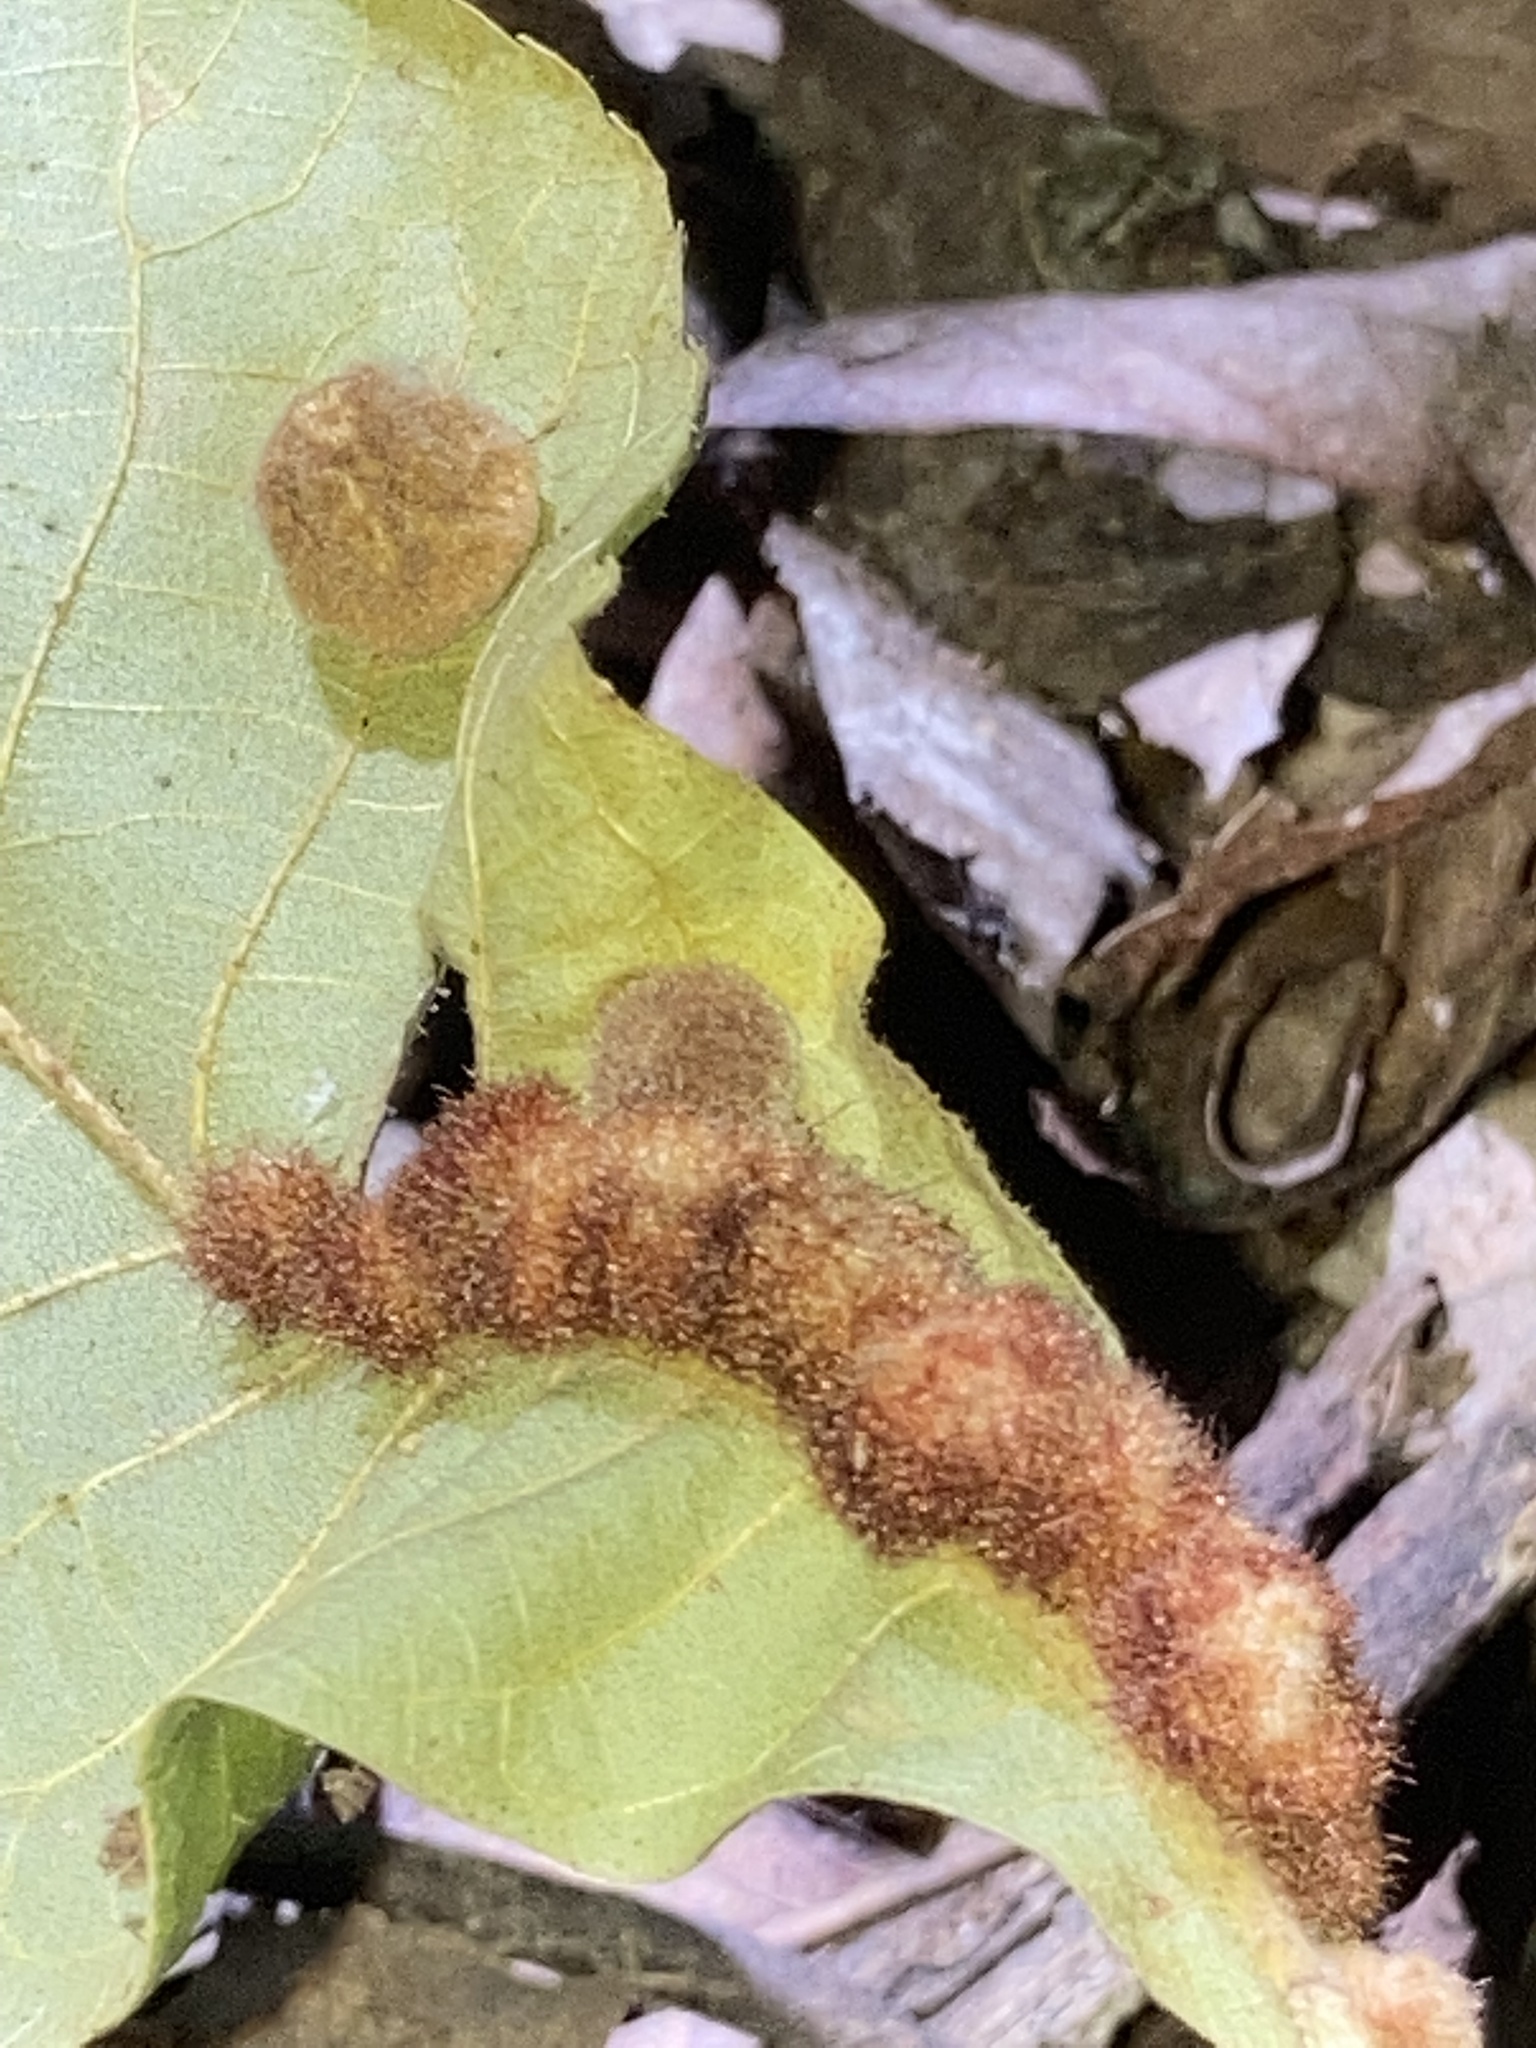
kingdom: Animalia
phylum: Arthropoda
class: Insecta
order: Diptera
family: Cecidomyiidae
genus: Caryomyia
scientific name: Caryomyia aggregata
